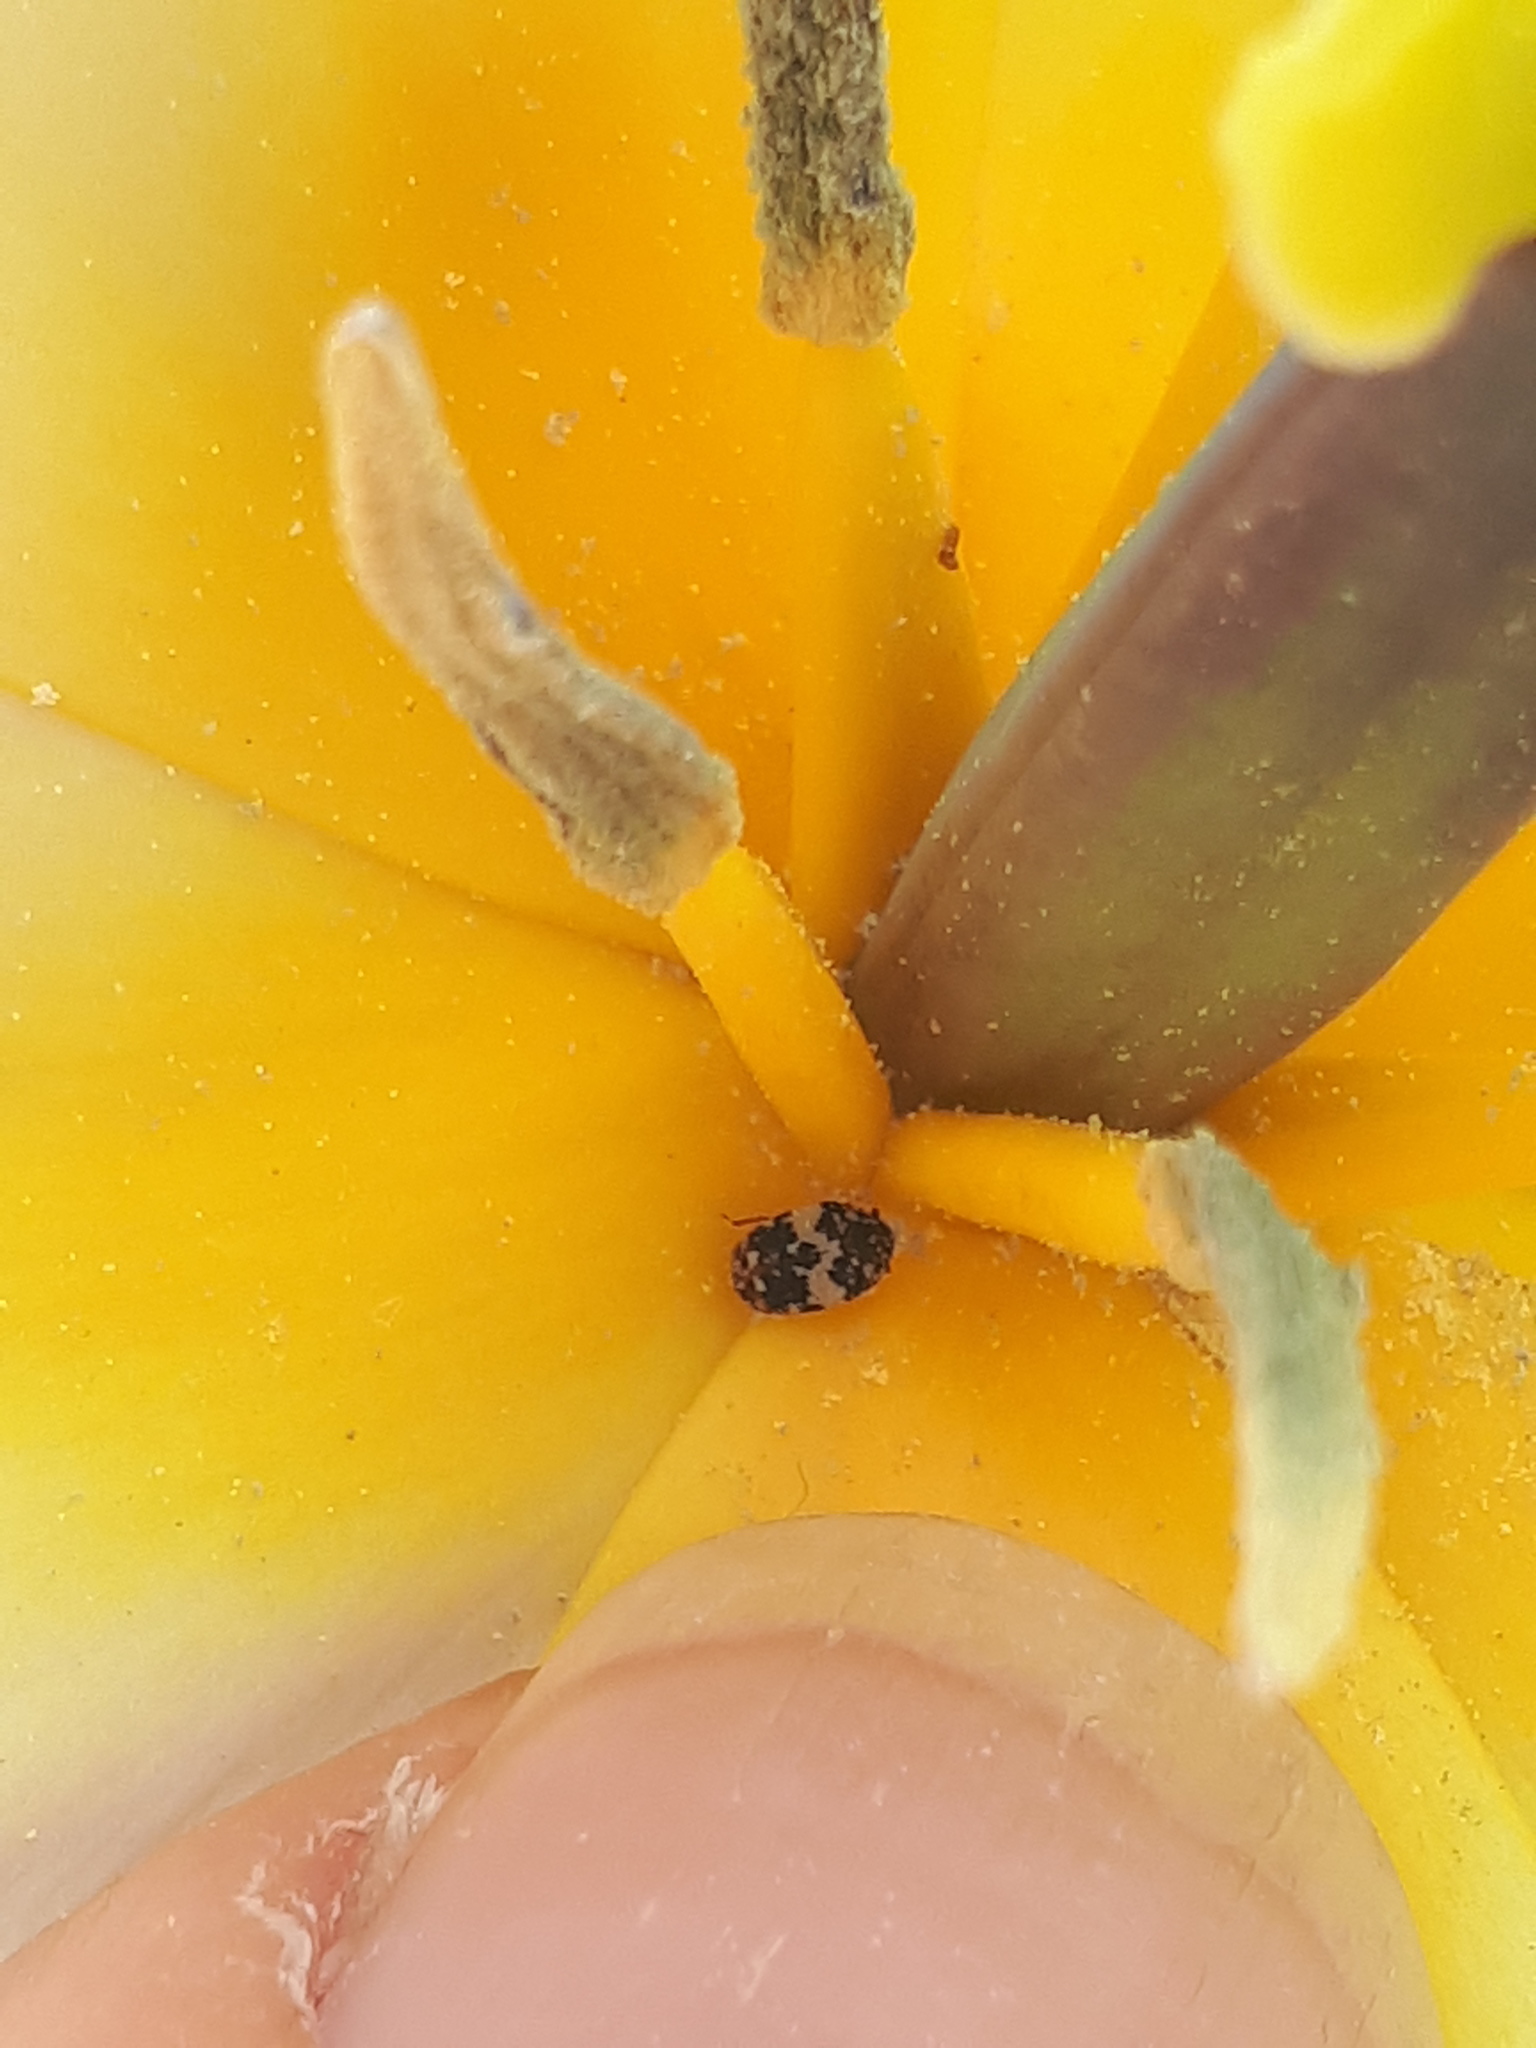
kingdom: Animalia
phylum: Arthropoda
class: Insecta
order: Coleoptera
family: Dermestidae
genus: Anthrenus
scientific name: Anthrenus pimpinellae
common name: Dermestid beetle
